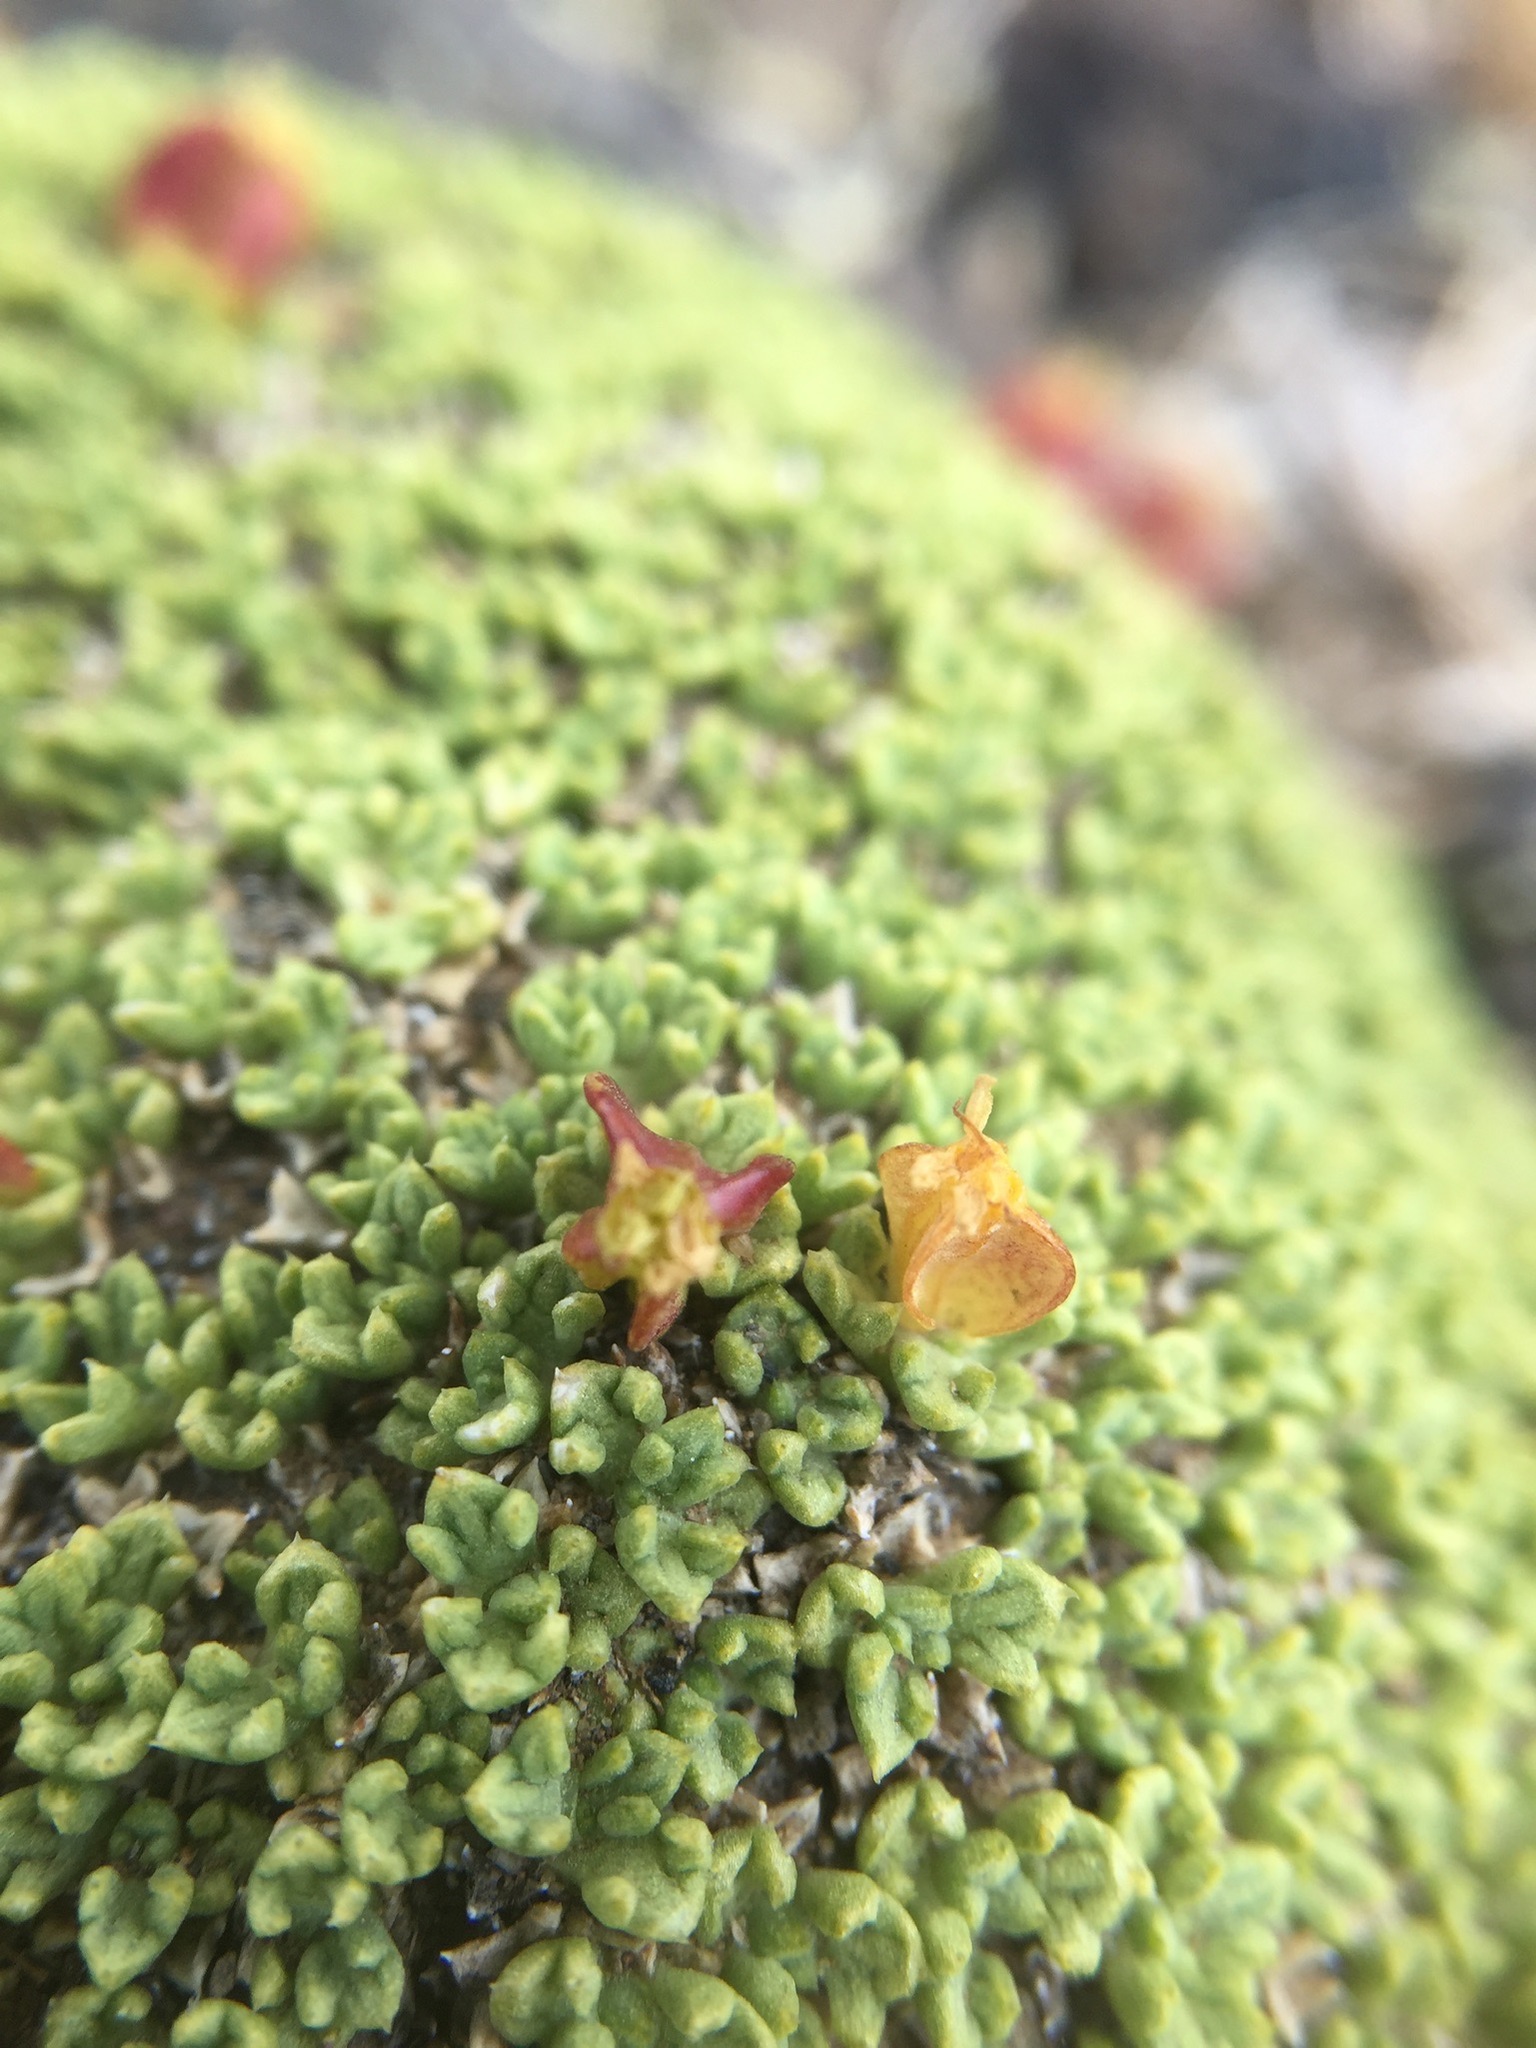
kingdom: Plantae
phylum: Tracheophyta
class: Magnoliopsida
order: Apiales
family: Apiaceae
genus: Azorella
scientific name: Azorella valentini
